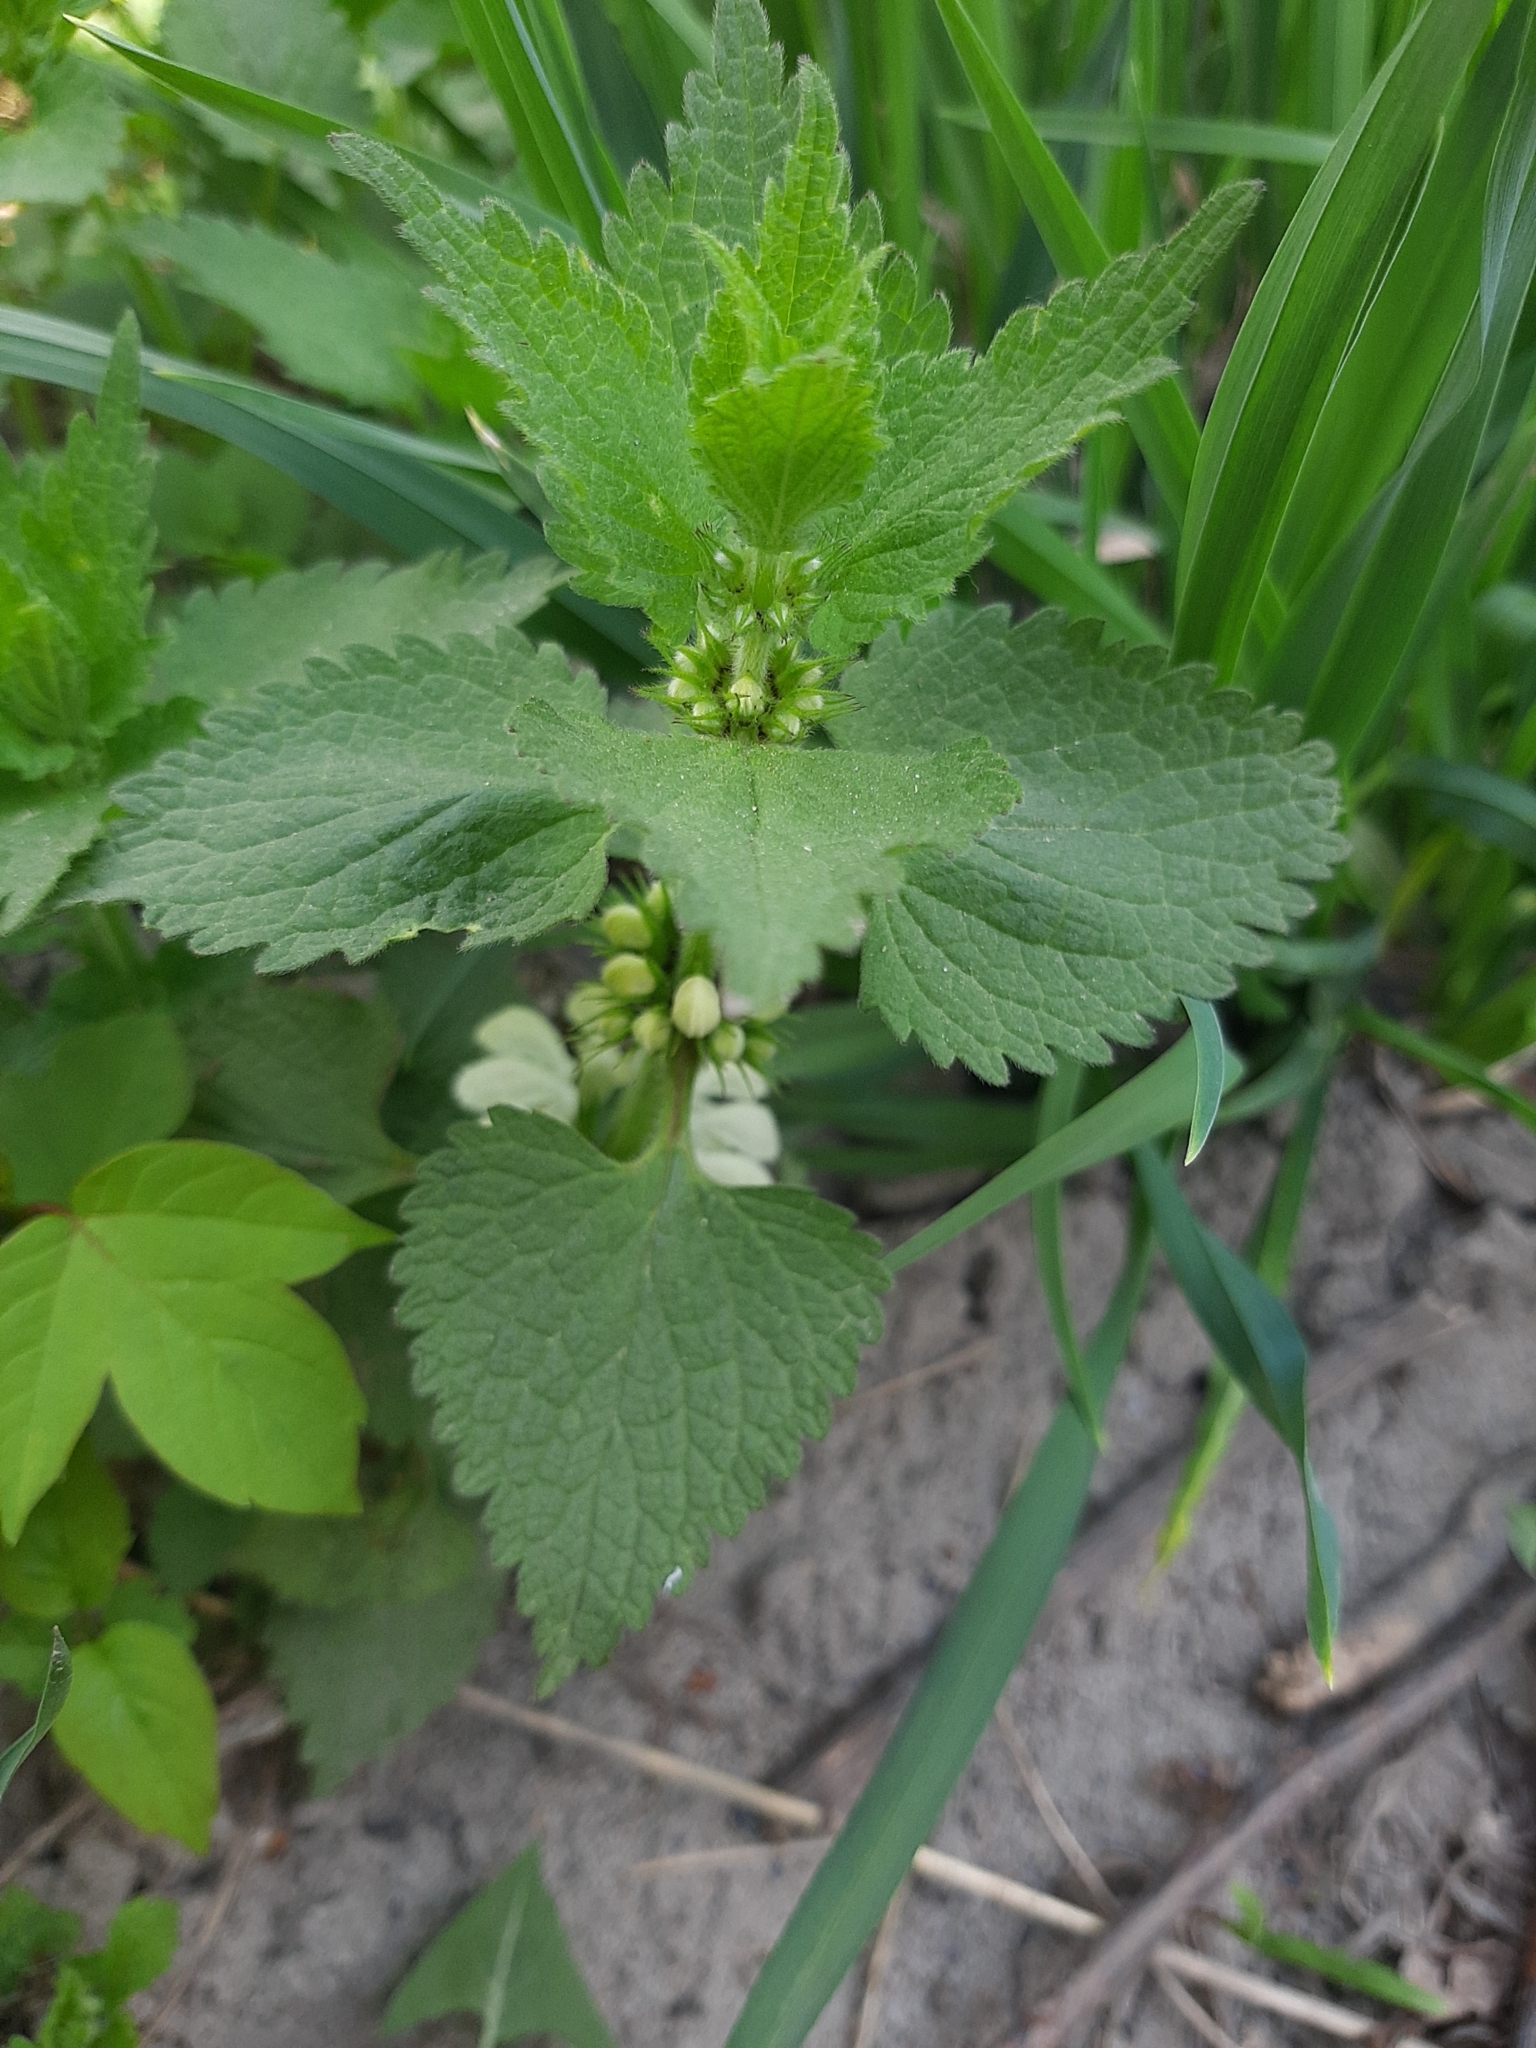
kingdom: Plantae
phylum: Tracheophyta
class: Magnoliopsida
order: Lamiales
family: Lamiaceae
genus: Lamium
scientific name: Lamium album
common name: White dead-nettle
